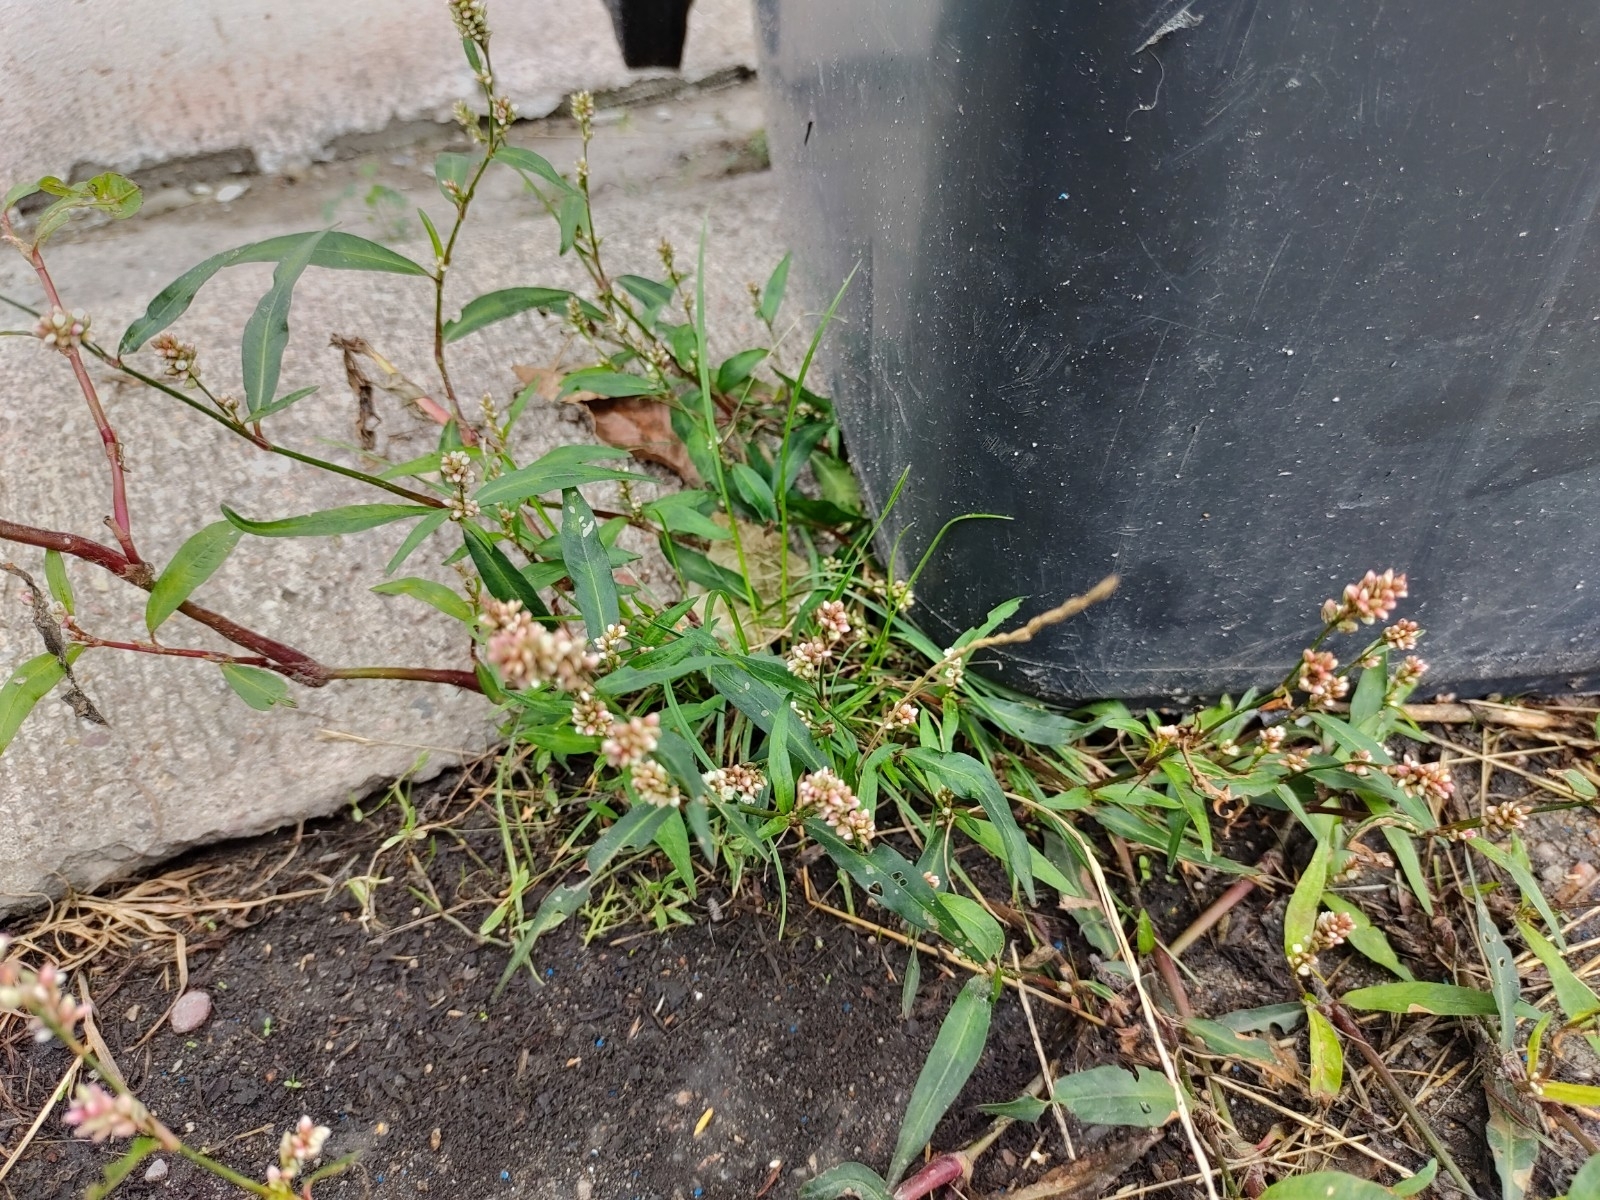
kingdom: Plantae
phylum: Tracheophyta
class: Magnoliopsida
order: Caryophyllales
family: Polygonaceae
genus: Persicaria
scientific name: Persicaria maculosa
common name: Redshank
